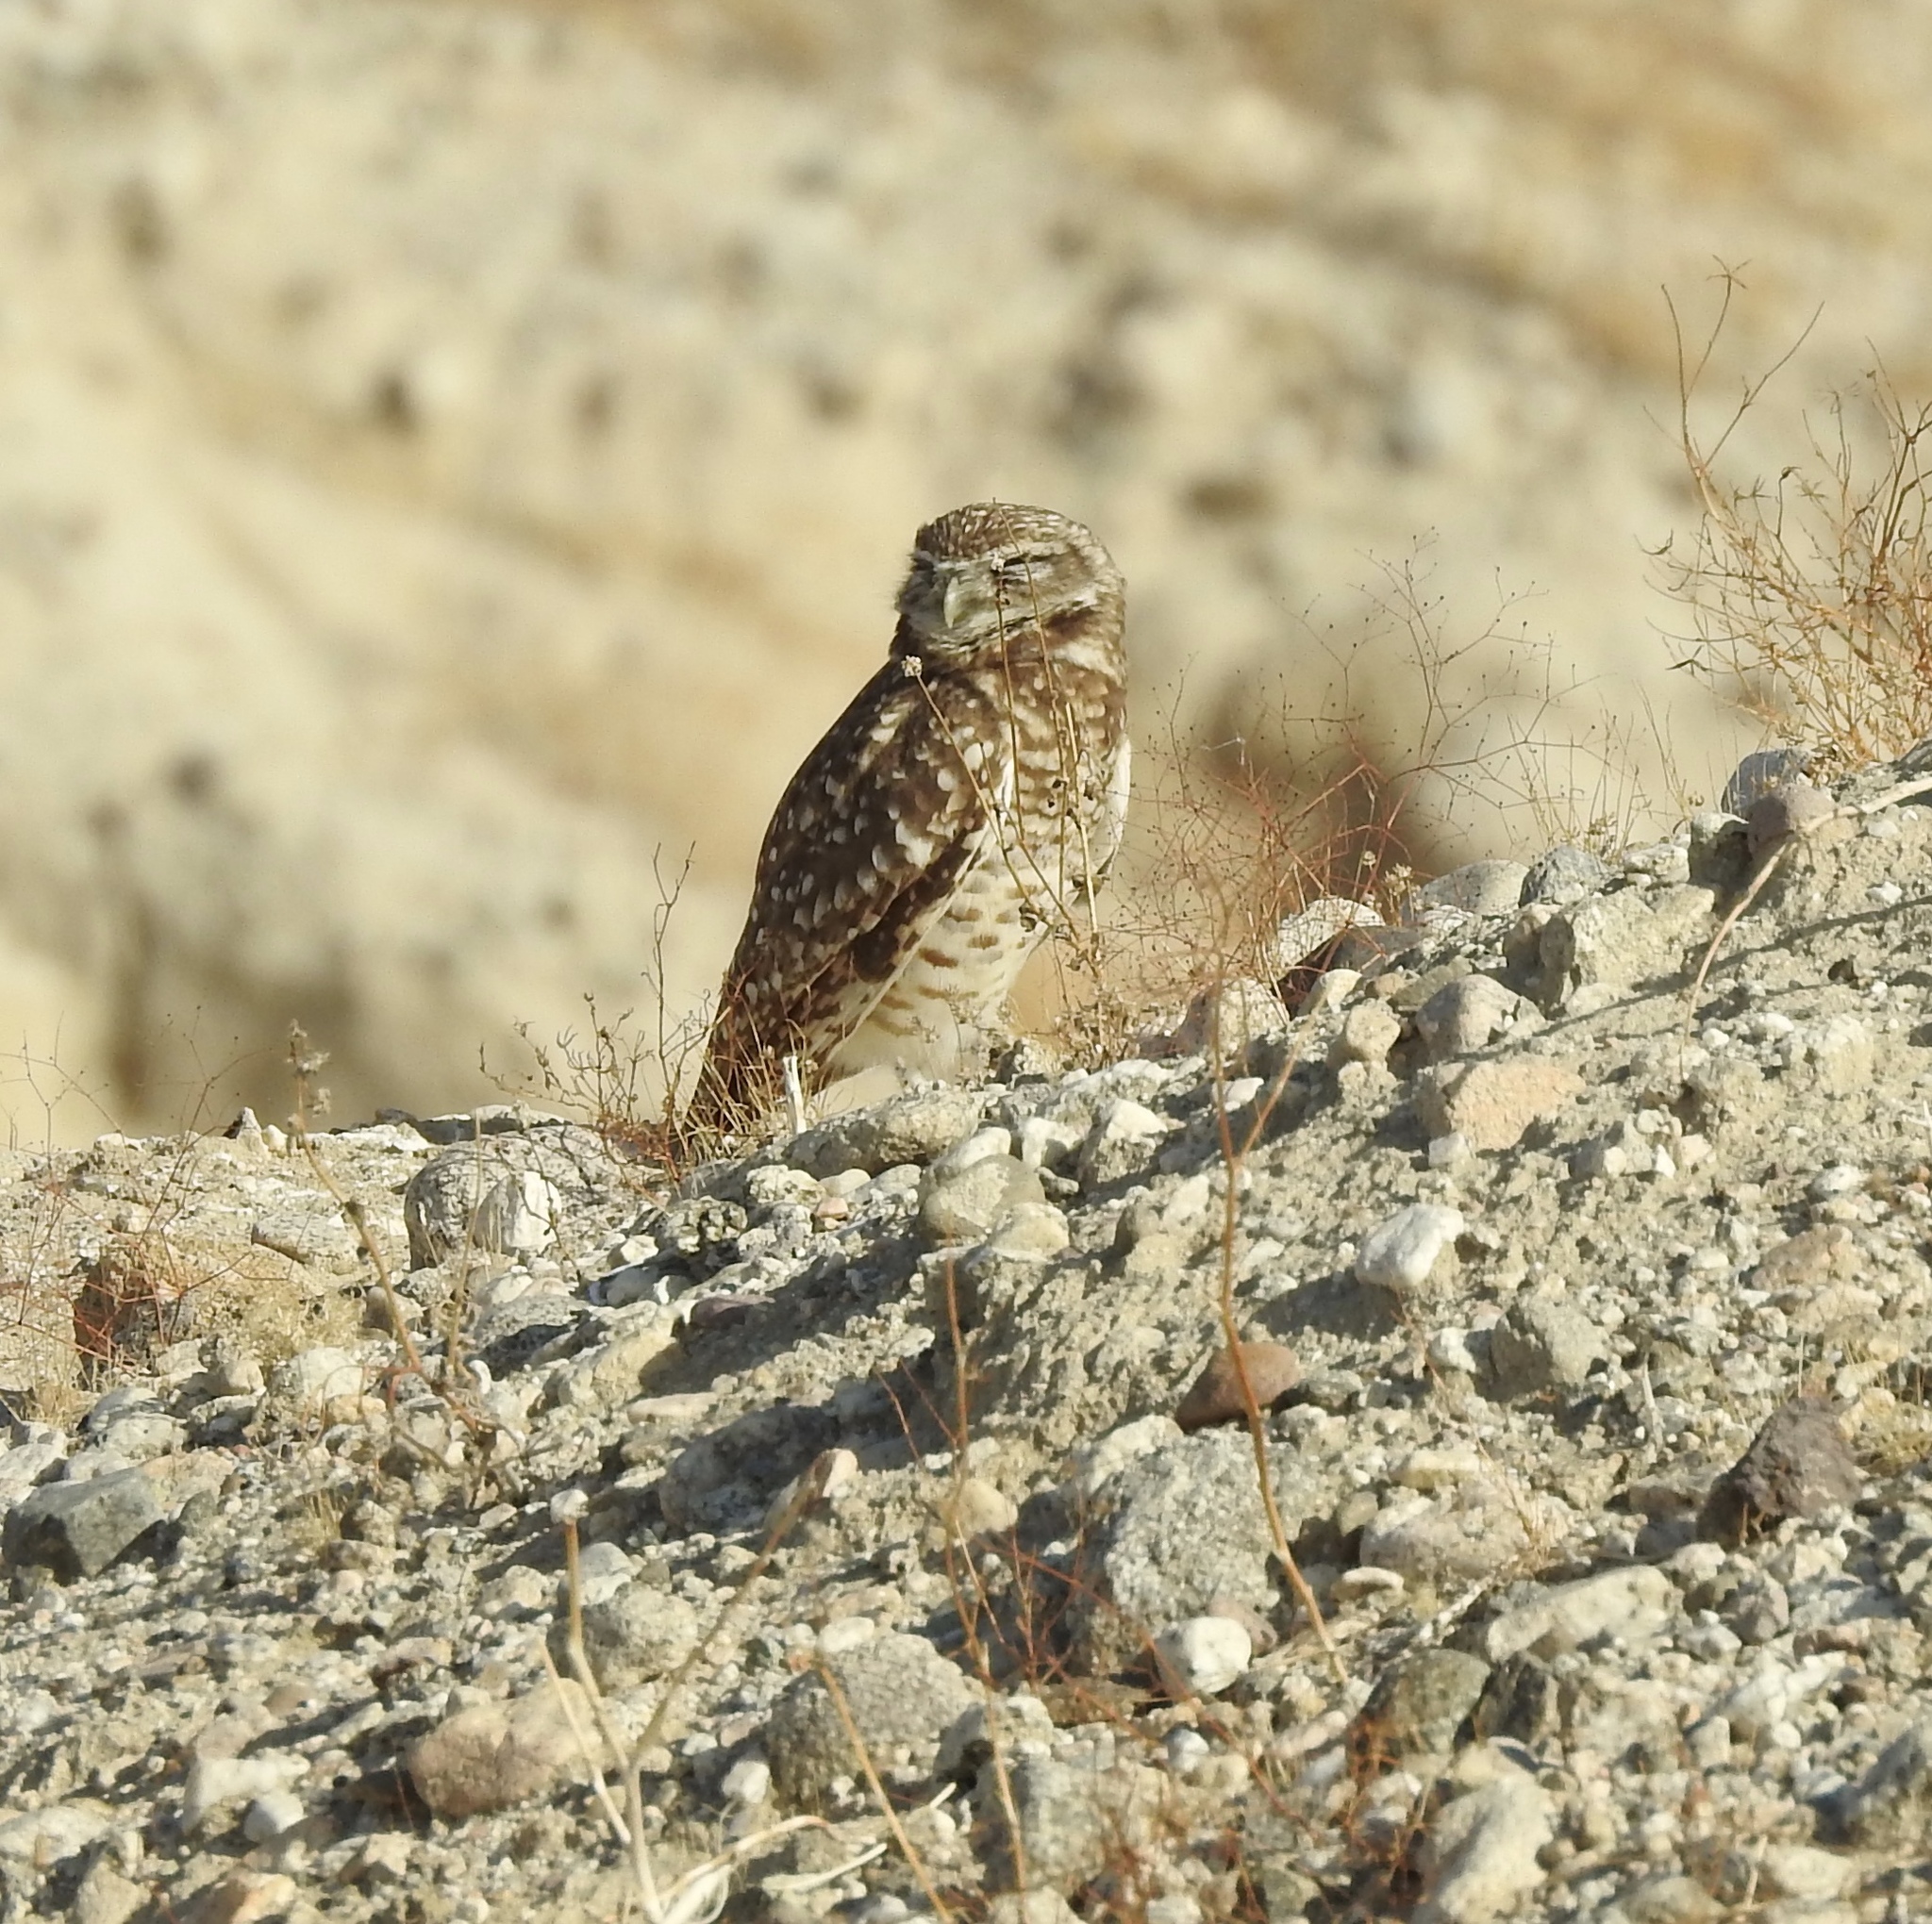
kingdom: Animalia
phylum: Chordata
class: Aves
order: Strigiformes
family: Strigidae
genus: Athene
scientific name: Athene cunicularia
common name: Burrowing owl
